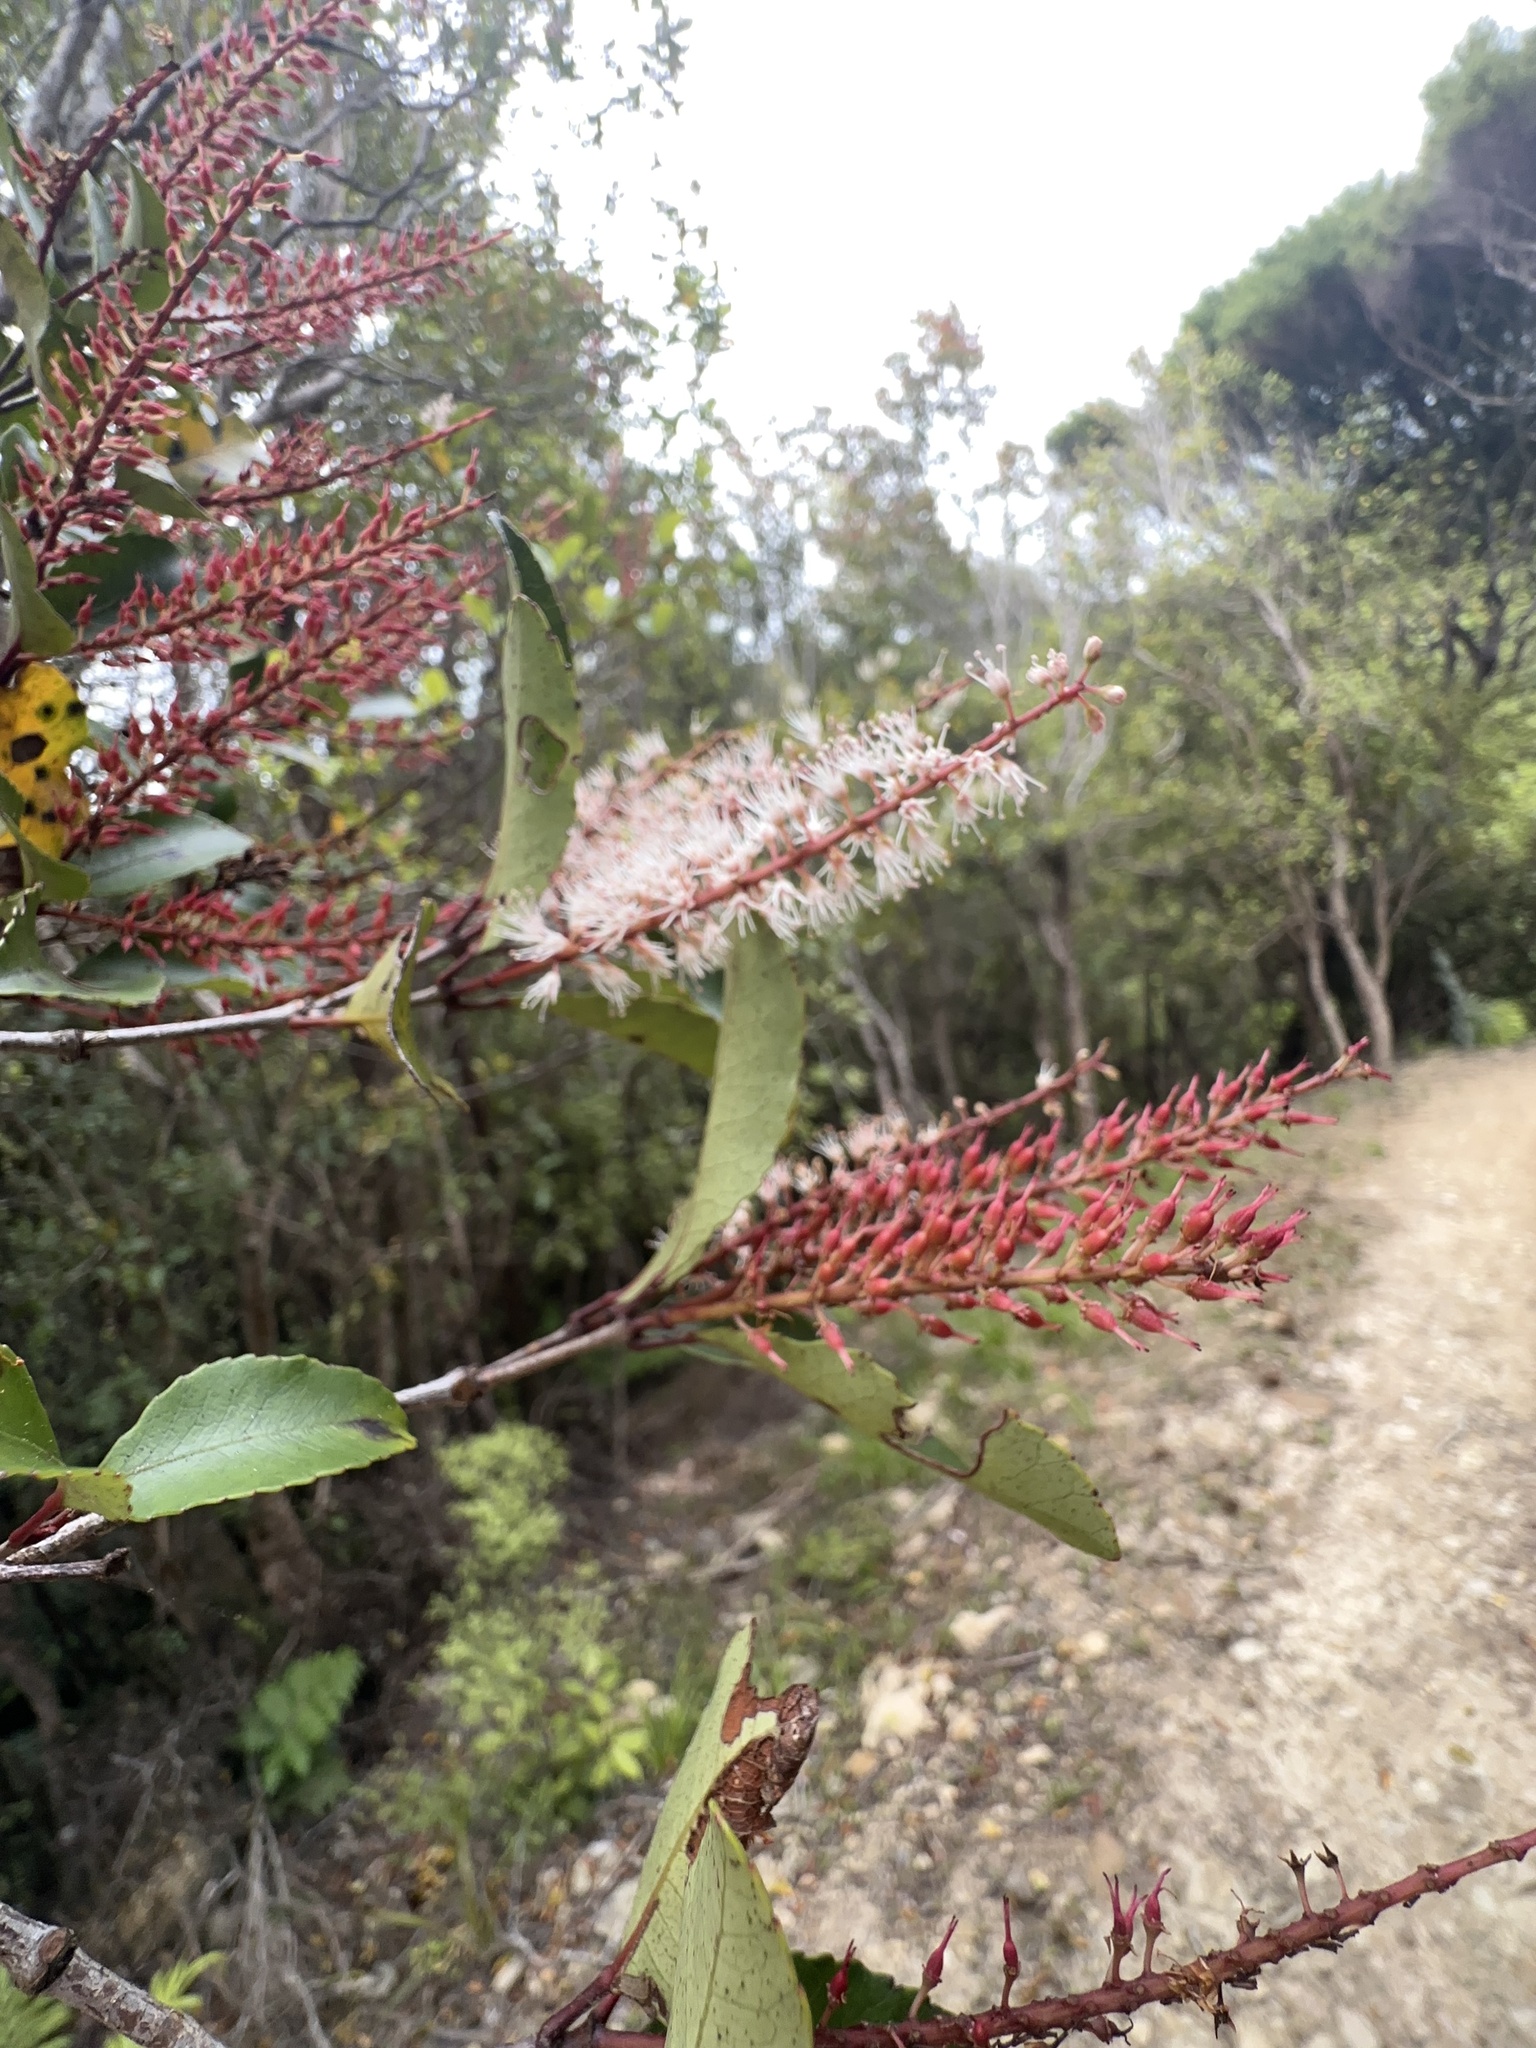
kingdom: Plantae
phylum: Tracheophyta
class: Magnoliopsida
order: Oxalidales
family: Cunoniaceae
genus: Pterophylla
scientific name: Pterophylla racemosa
